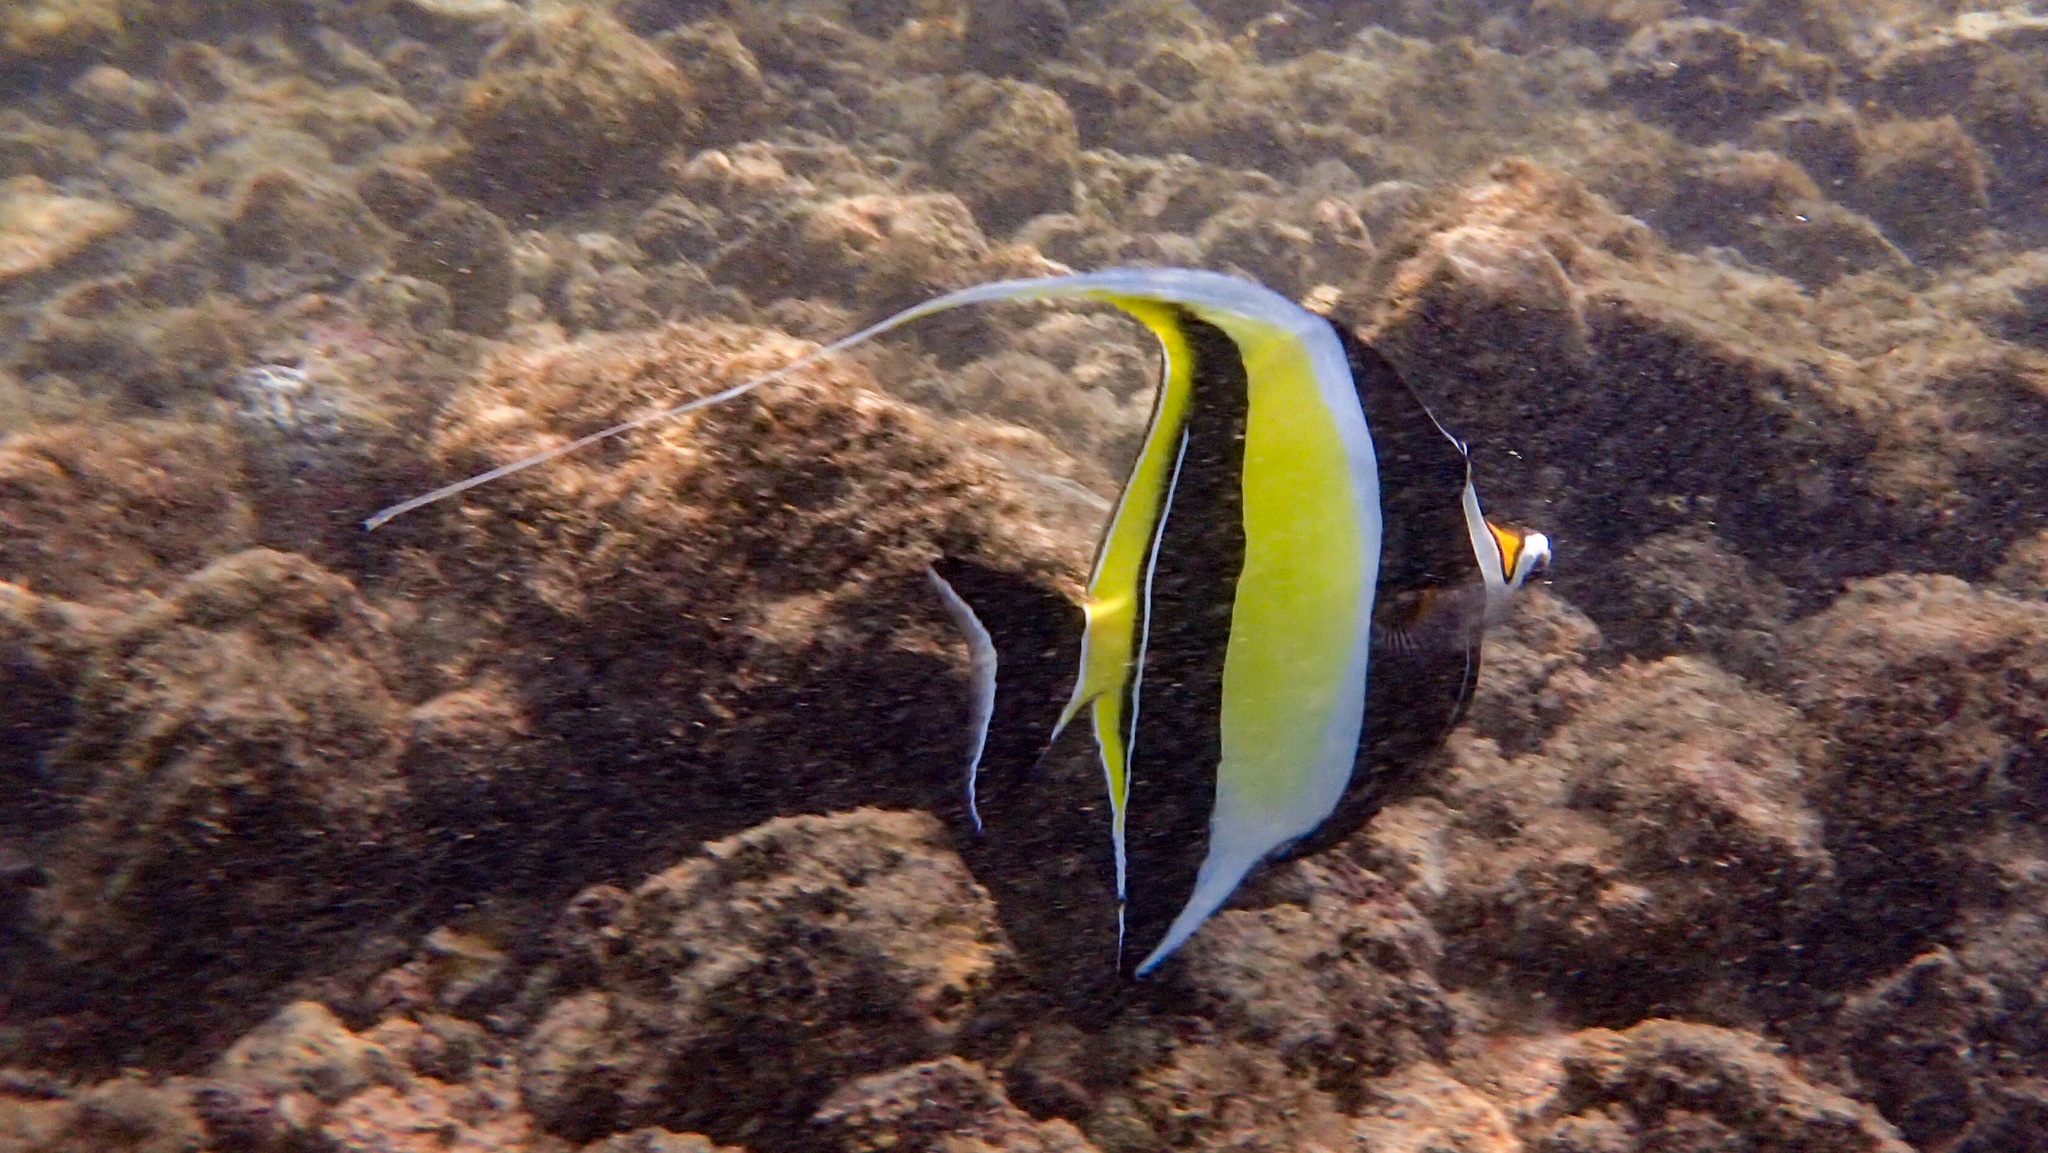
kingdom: Animalia
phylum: Chordata
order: Perciformes
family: Zanclidae
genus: Zanclus
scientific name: Zanclus cornutus
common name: Moorish idol
